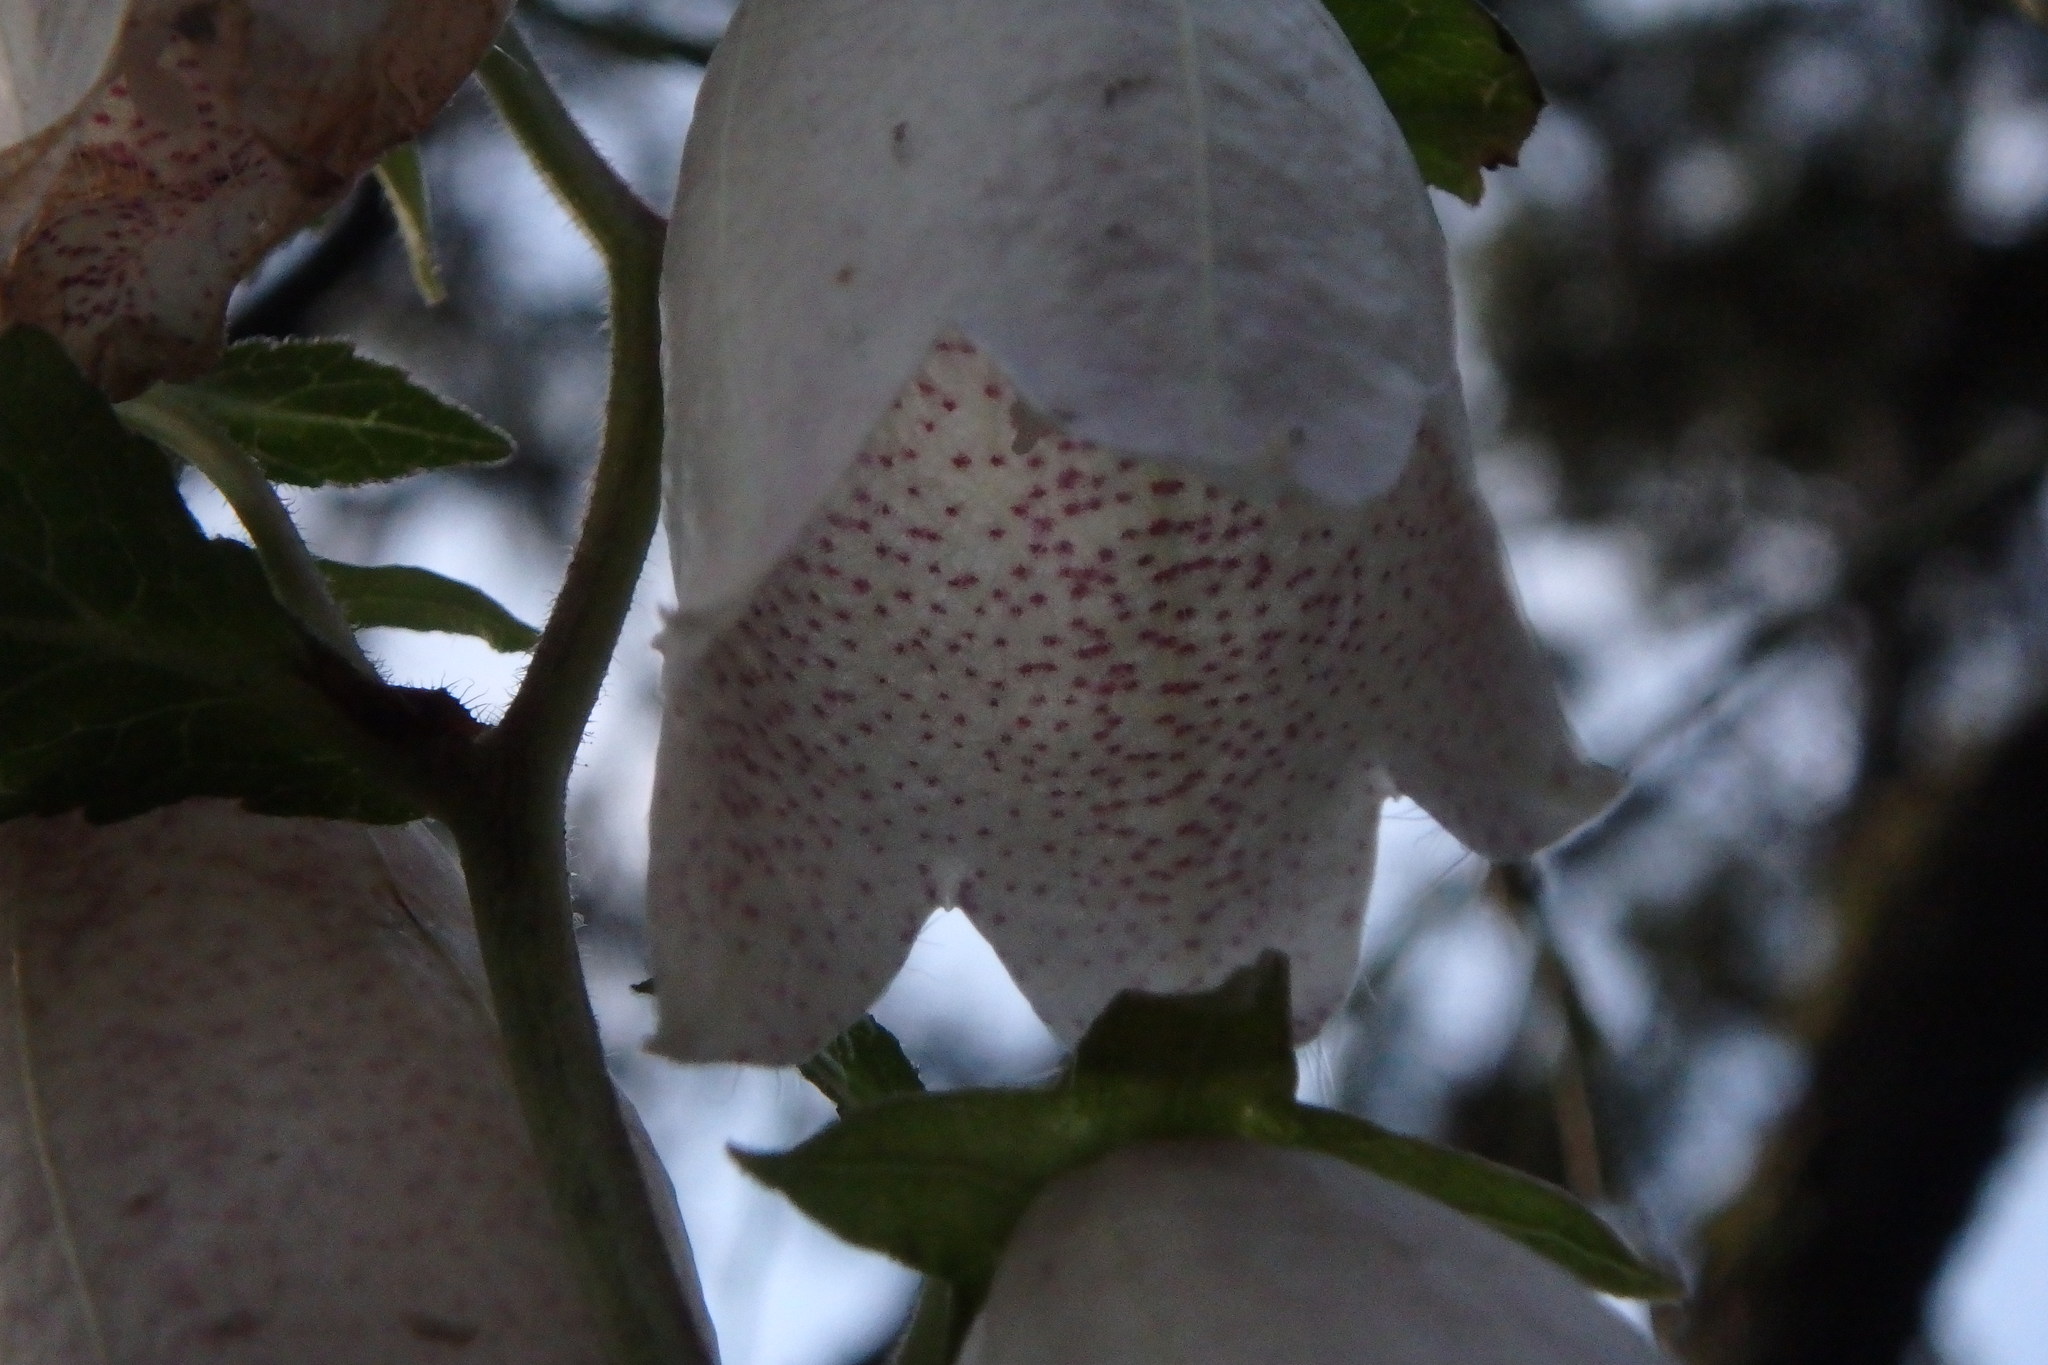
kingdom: Plantae
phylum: Tracheophyta
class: Magnoliopsida
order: Asterales
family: Campanulaceae
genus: Campanula
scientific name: Campanula punctata
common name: Spotted bellflower
